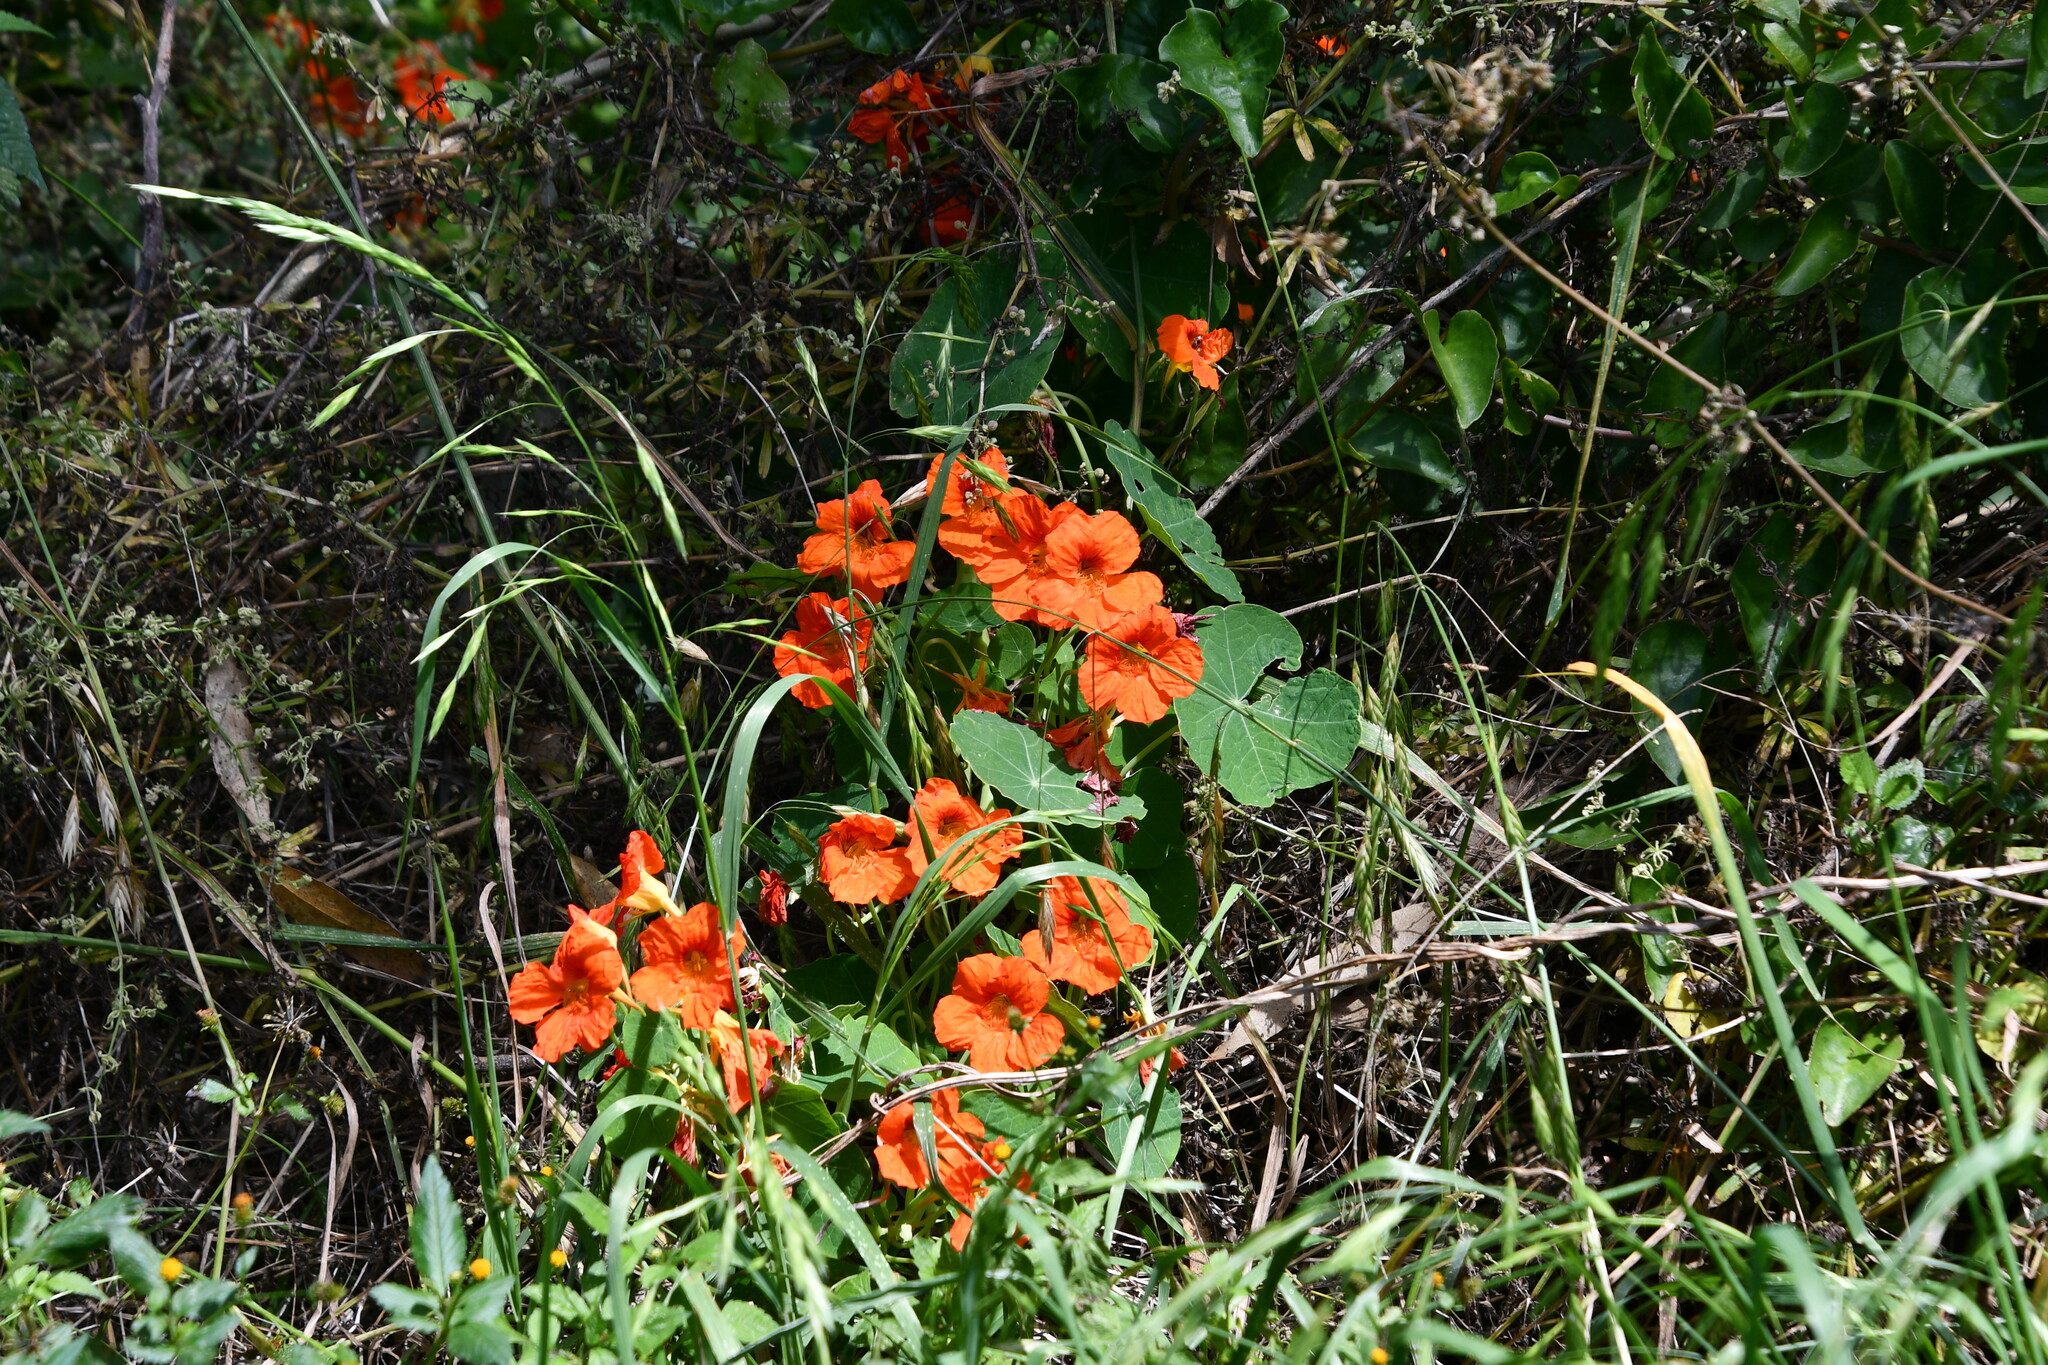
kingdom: Plantae
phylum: Tracheophyta
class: Magnoliopsida
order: Brassicales
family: Tropaeolaceae
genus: Tropaeolum
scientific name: Tropaeolum majus
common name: Nasturtium
